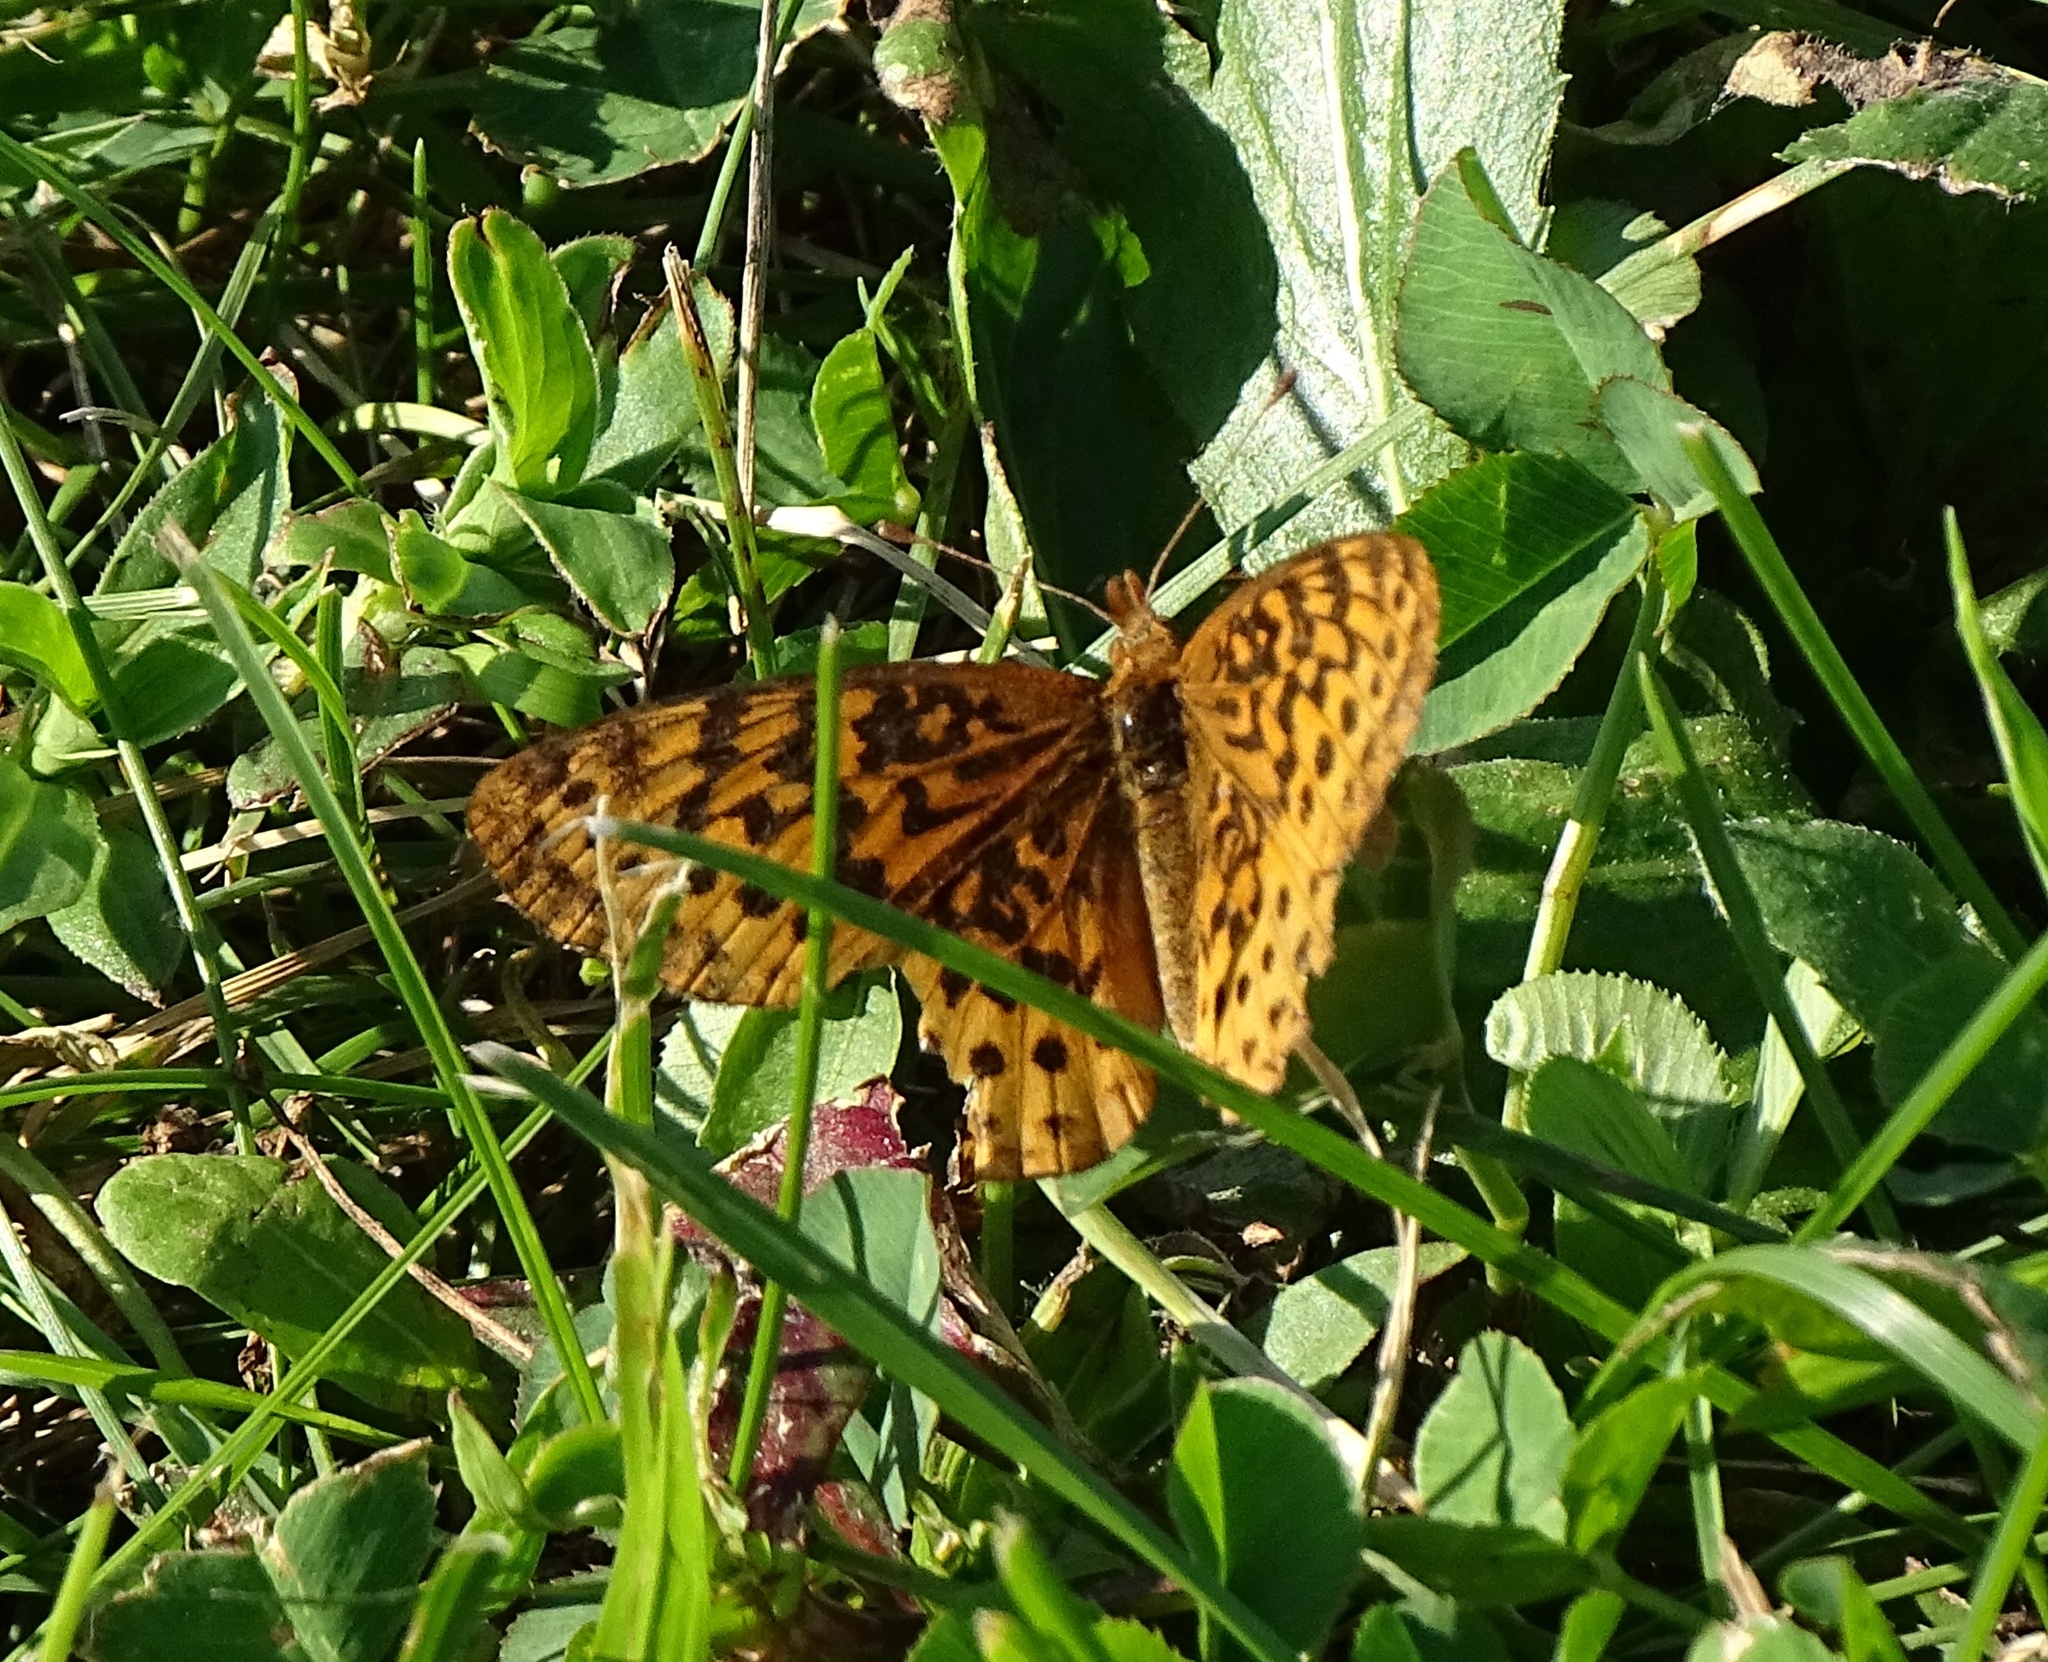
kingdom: Animalia
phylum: Arthropoda
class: Insecta
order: Lepidoptera
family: Nymphalidae
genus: Clossiana
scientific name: Clossiana toddi
